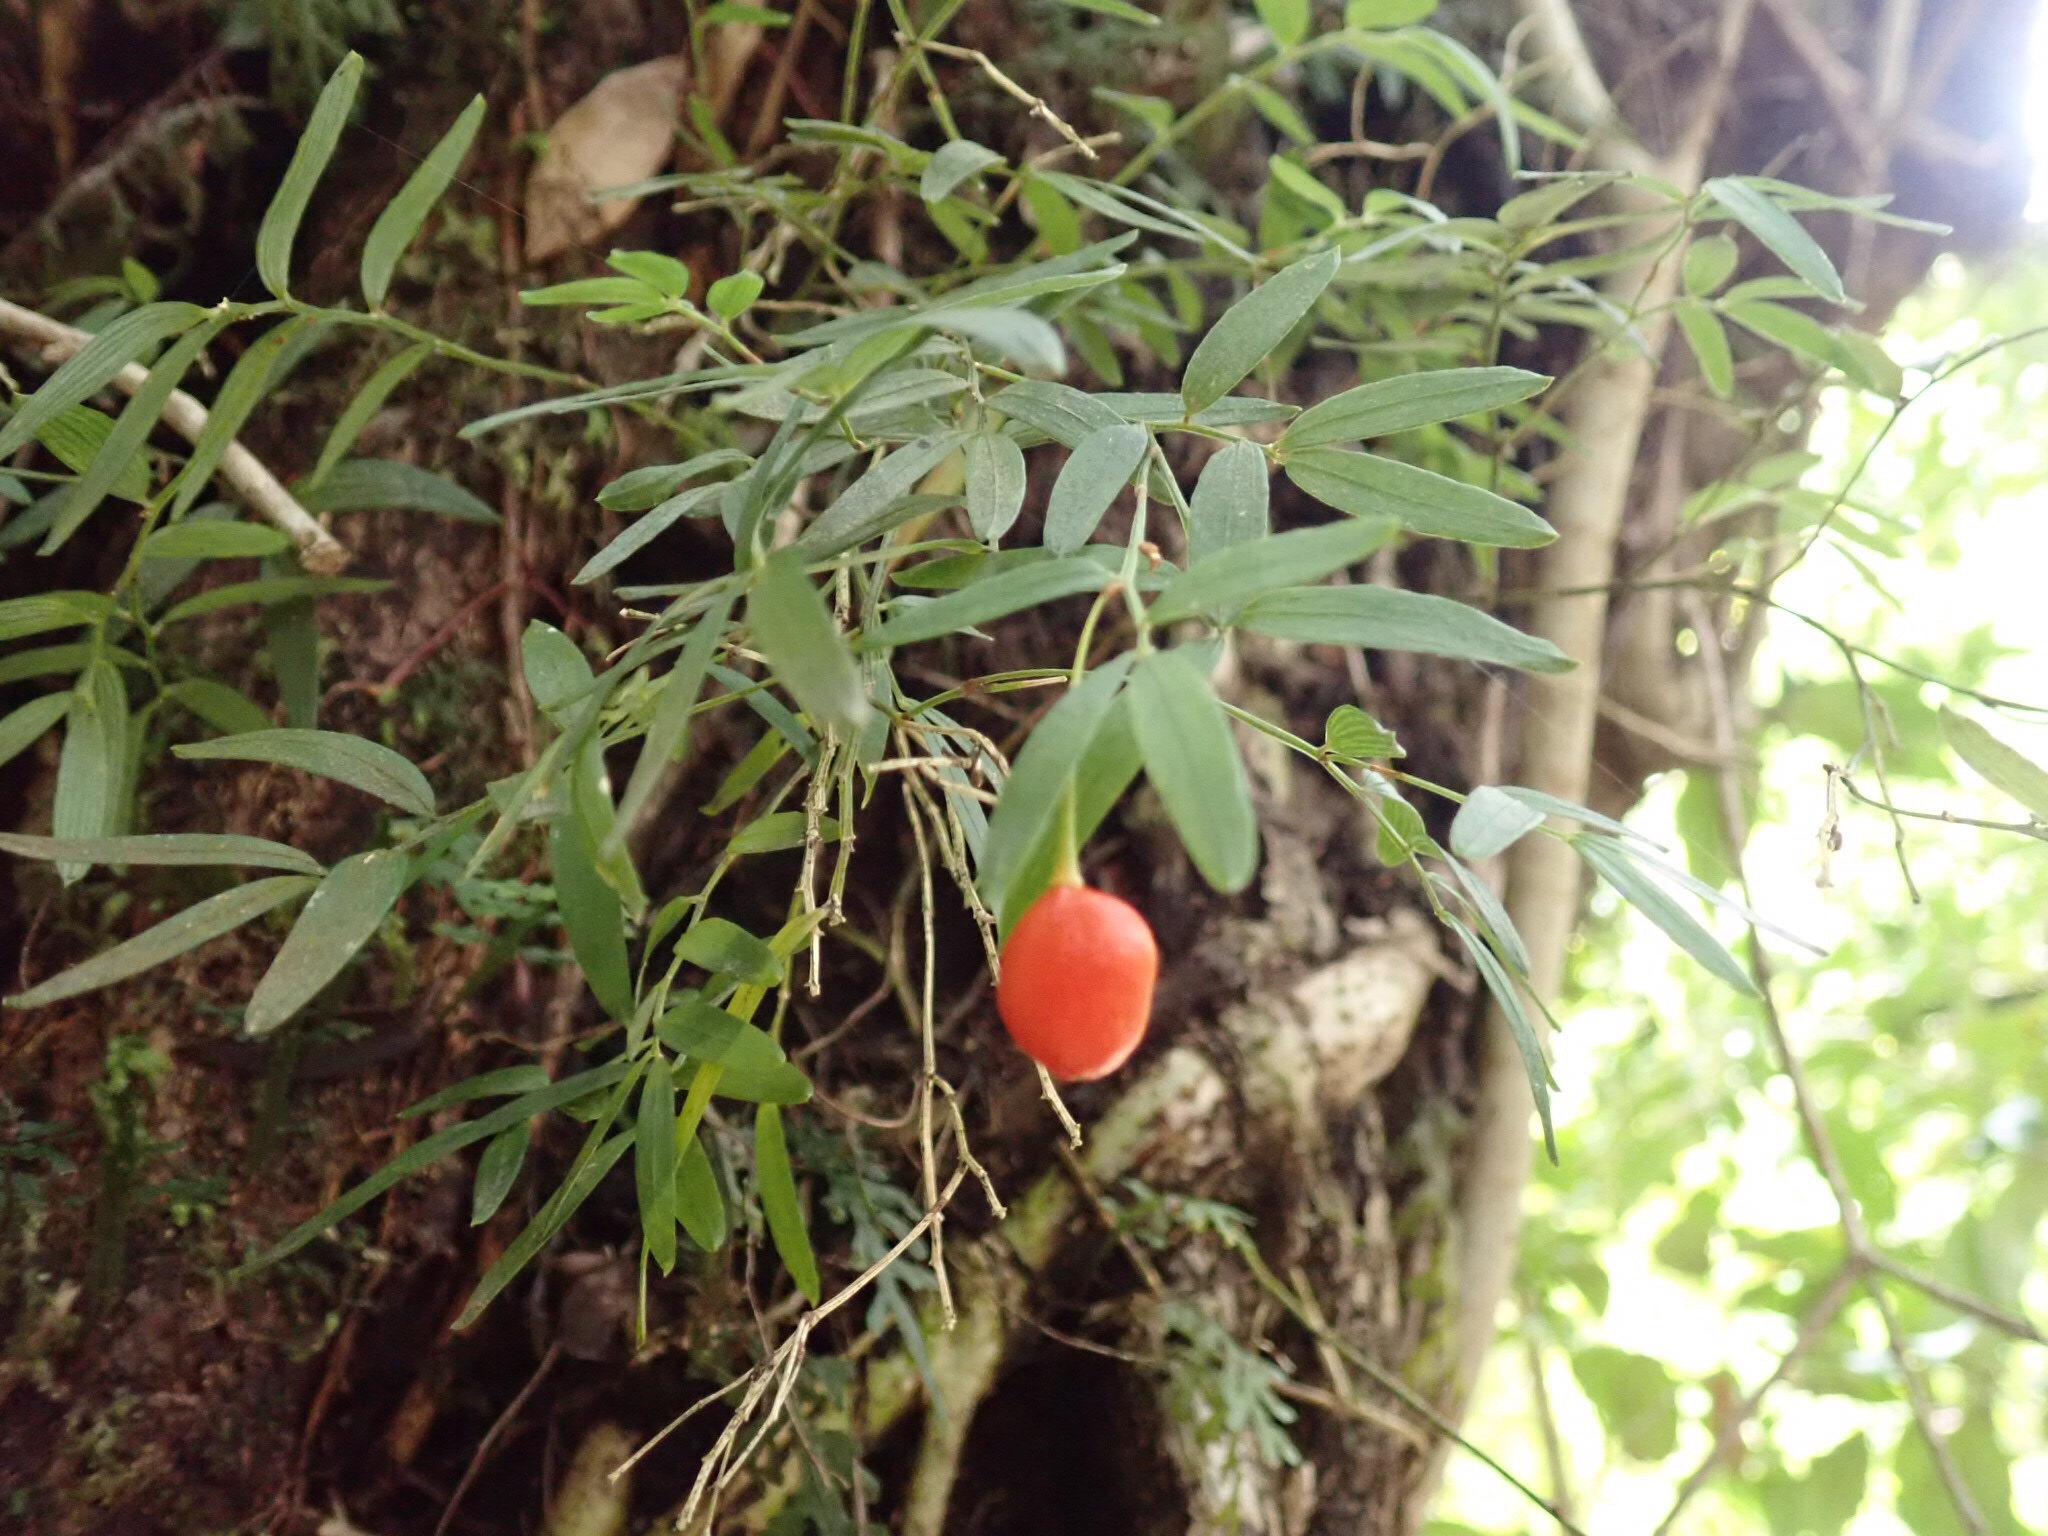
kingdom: Plantae
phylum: Tracheophyta
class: Liliopsida
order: Liliales
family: Alstroemeriaceae
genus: Luzuriaga
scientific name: Luzuriaga radicans
